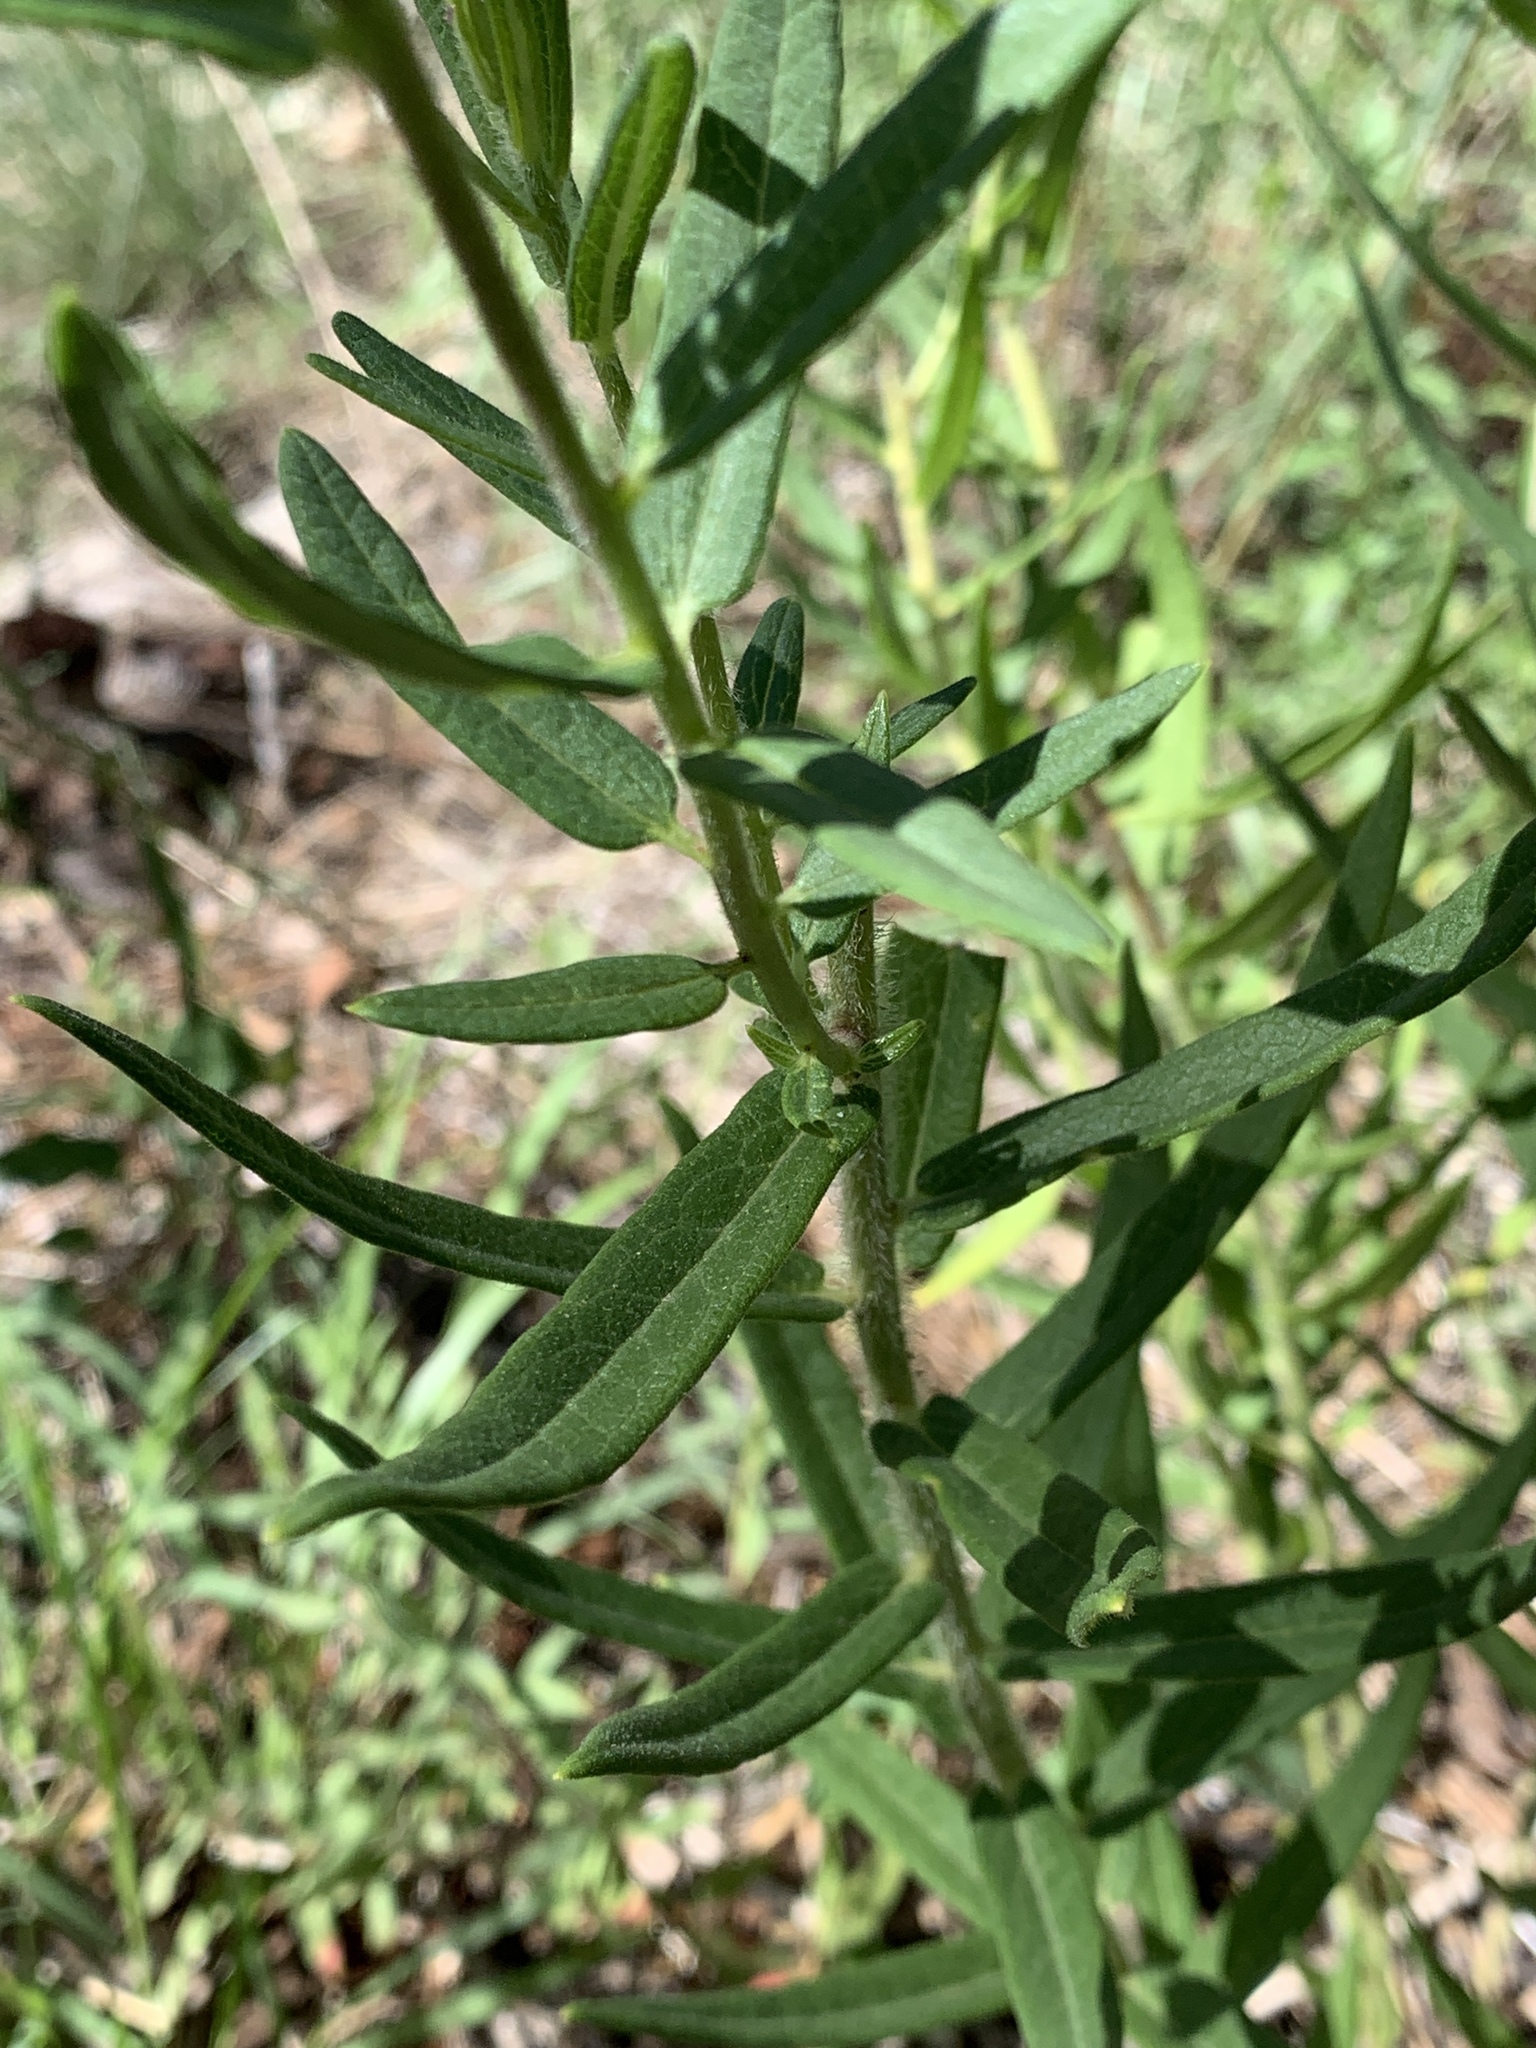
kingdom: Plantae
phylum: Tracheophyta
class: Magnoliopsida
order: Gentianales
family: Apocynaceae
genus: Asclepias
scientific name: Asclepias tuberosa
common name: Butterfly milkweed
